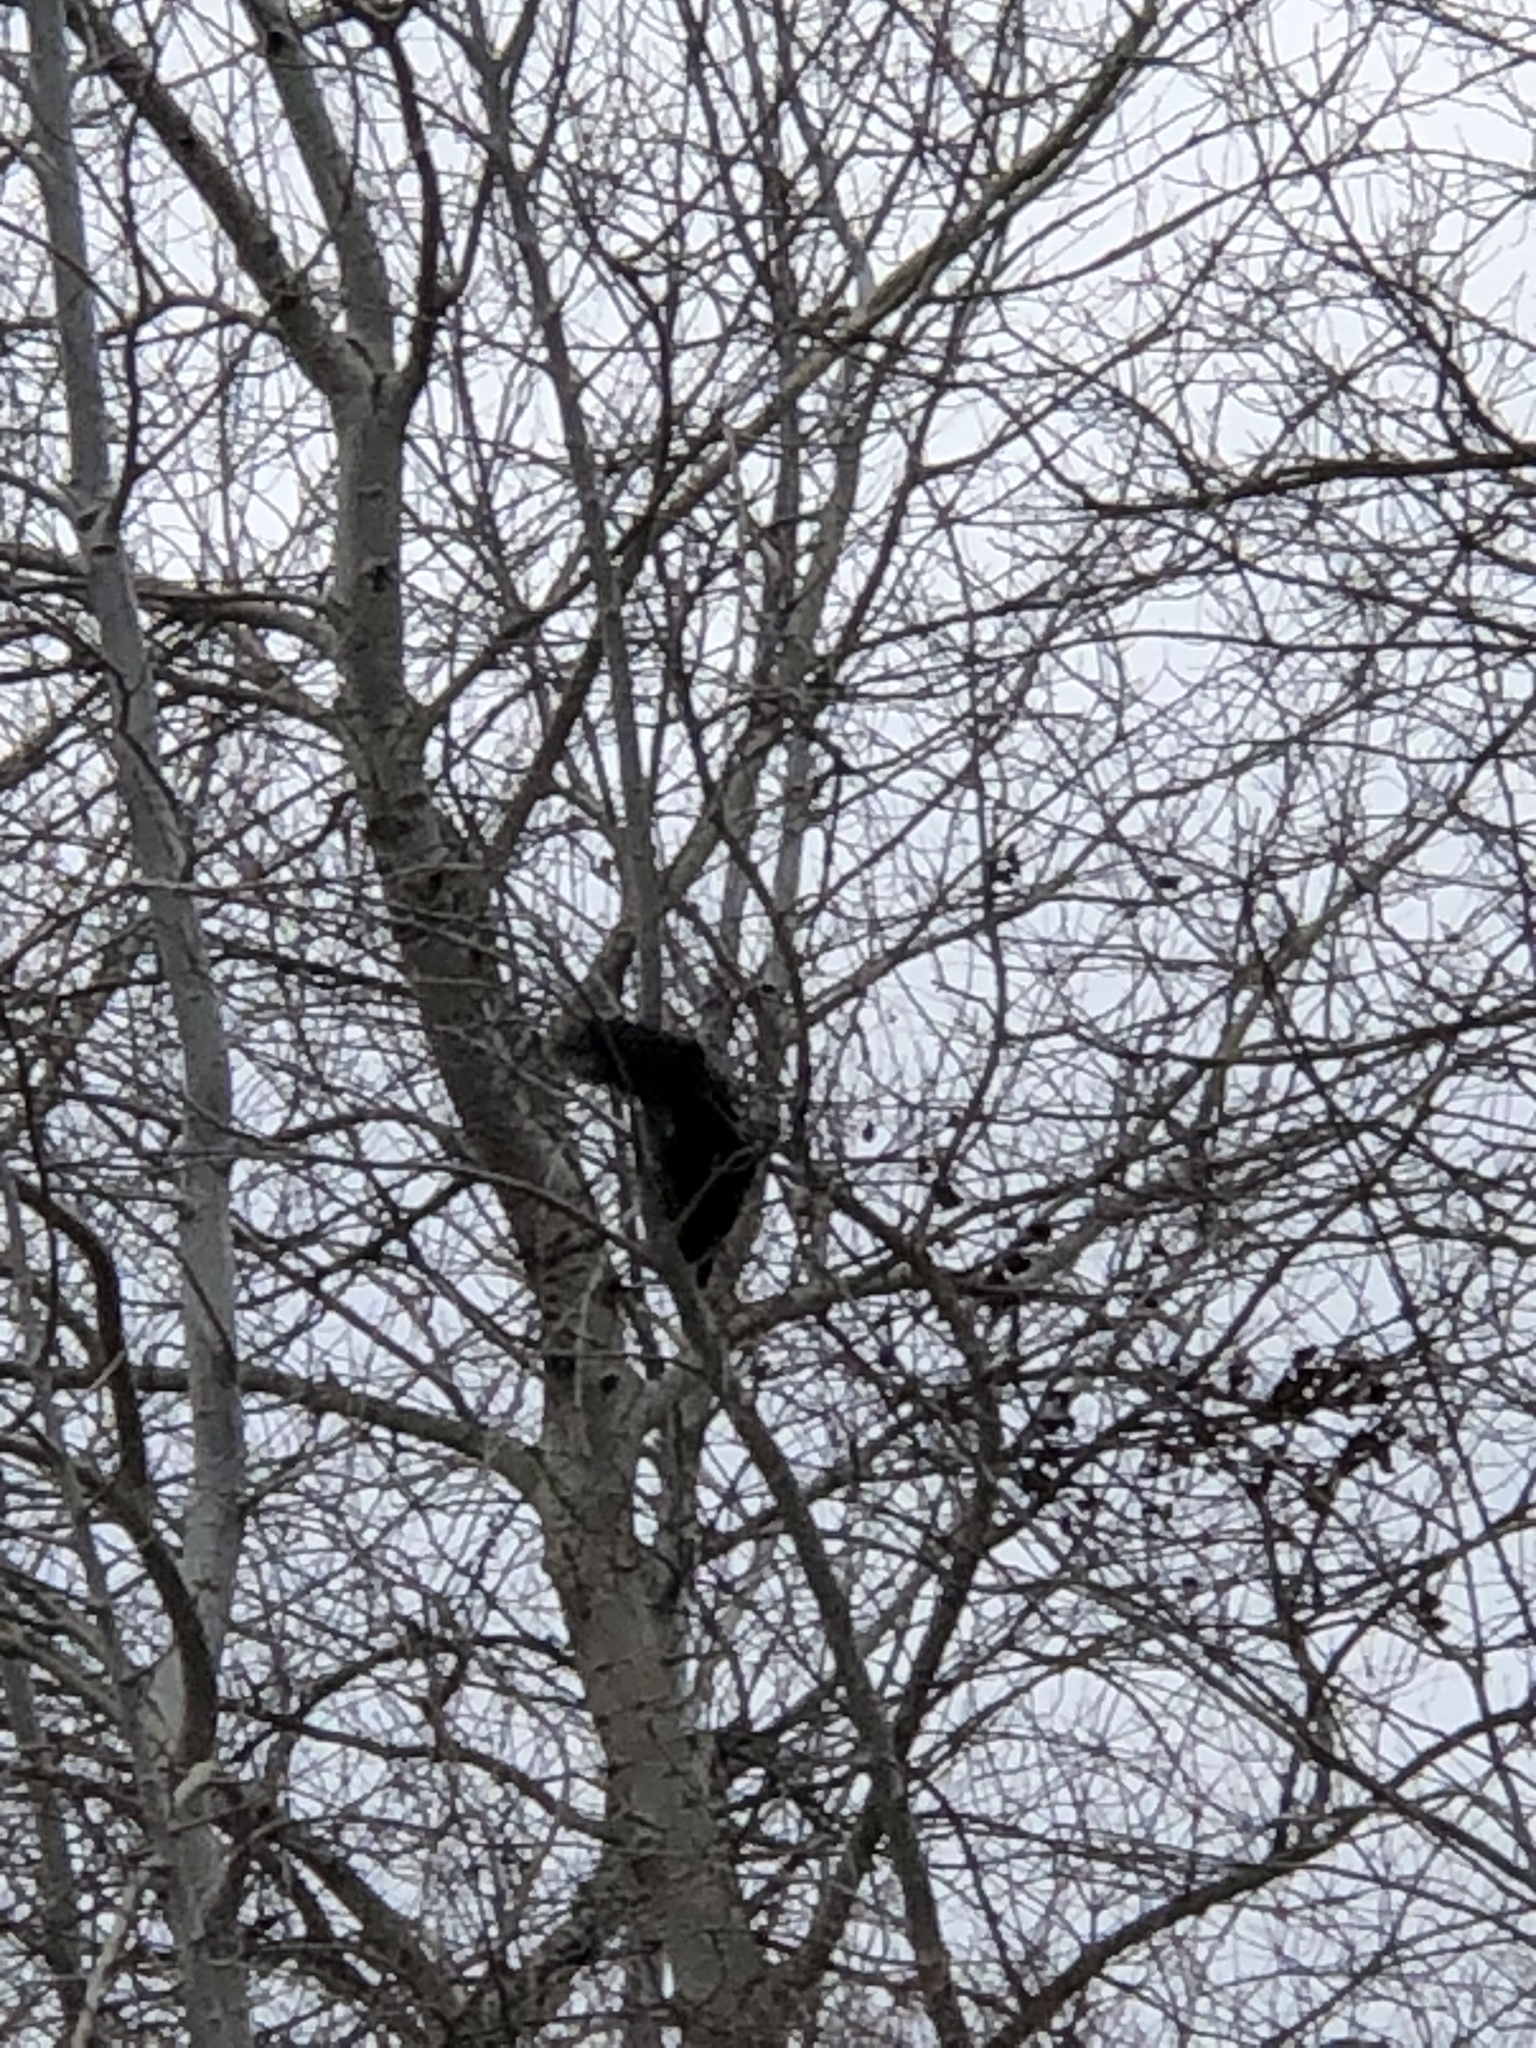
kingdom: Animalia
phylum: Chordata
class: Mammalia
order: Rodentia
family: Sciuridae
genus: Sciurus
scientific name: Sciurus carolinensis
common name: Eastern gray squirrel
